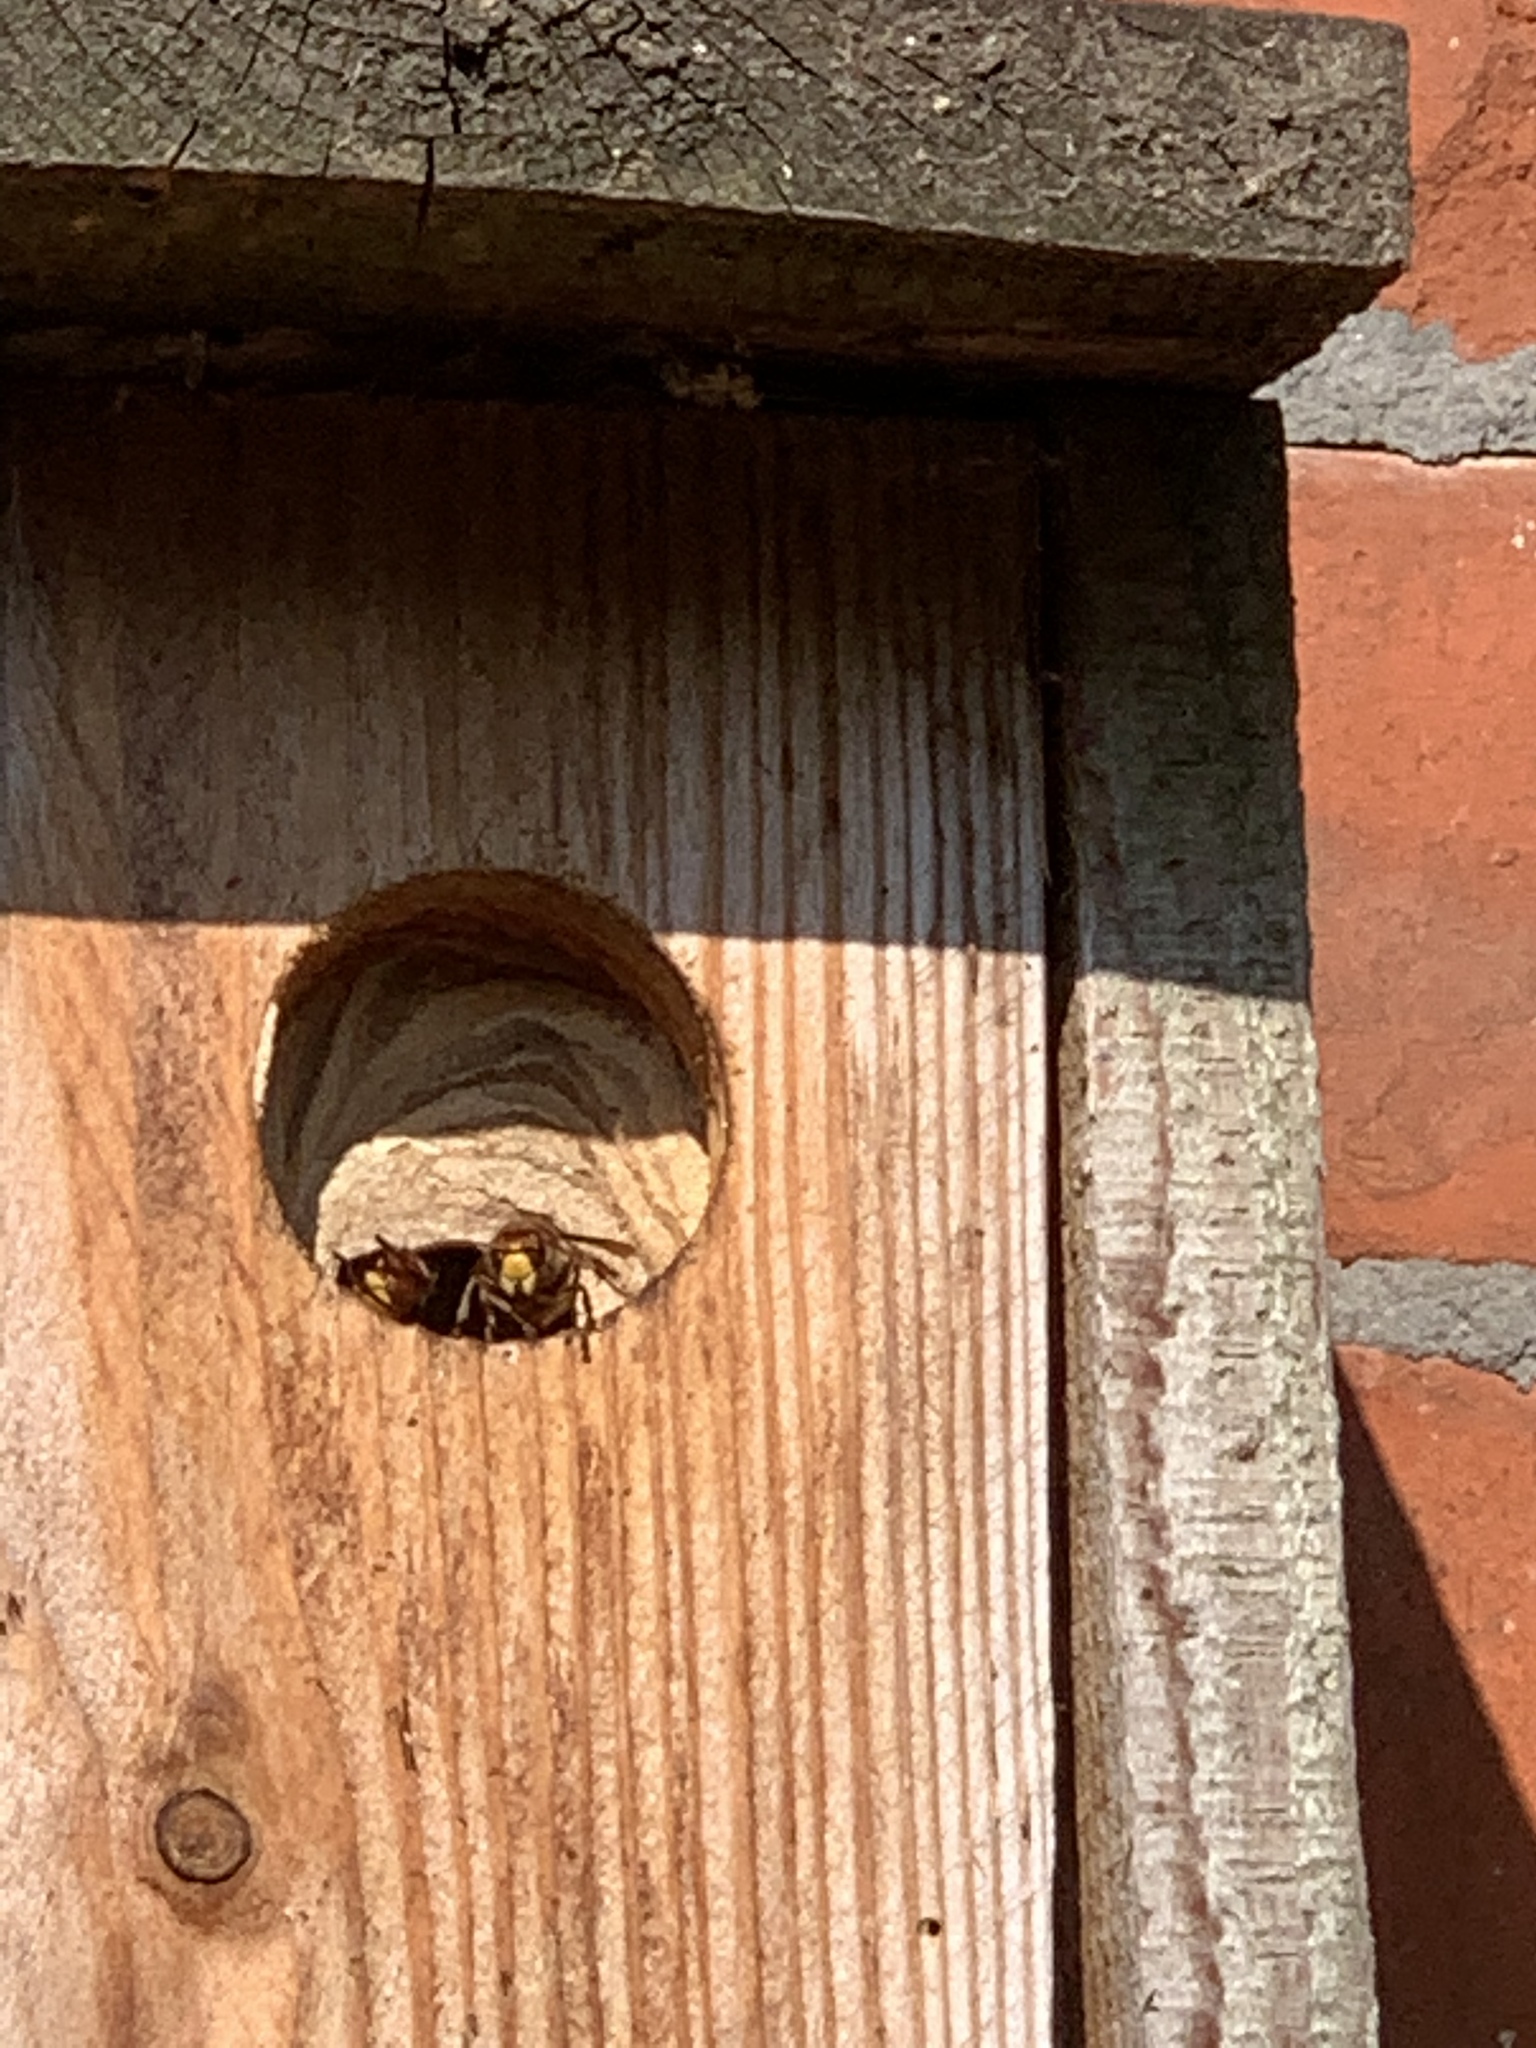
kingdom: Animalia
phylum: Arthropoda
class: Insecta
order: Hymenoptera
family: Vespidae
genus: Vespa
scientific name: Vespa crabro
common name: Hornet
